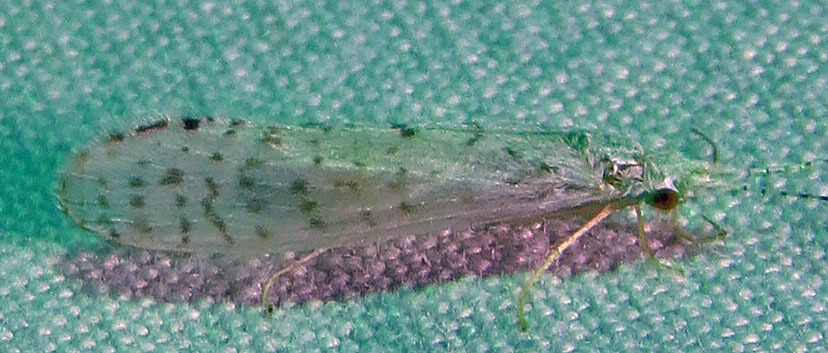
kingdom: Animalia
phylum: Arthropoda
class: Insecta
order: Trichoptera
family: Leptoceridae
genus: Nectopsyche
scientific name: Nectopsyche candida
